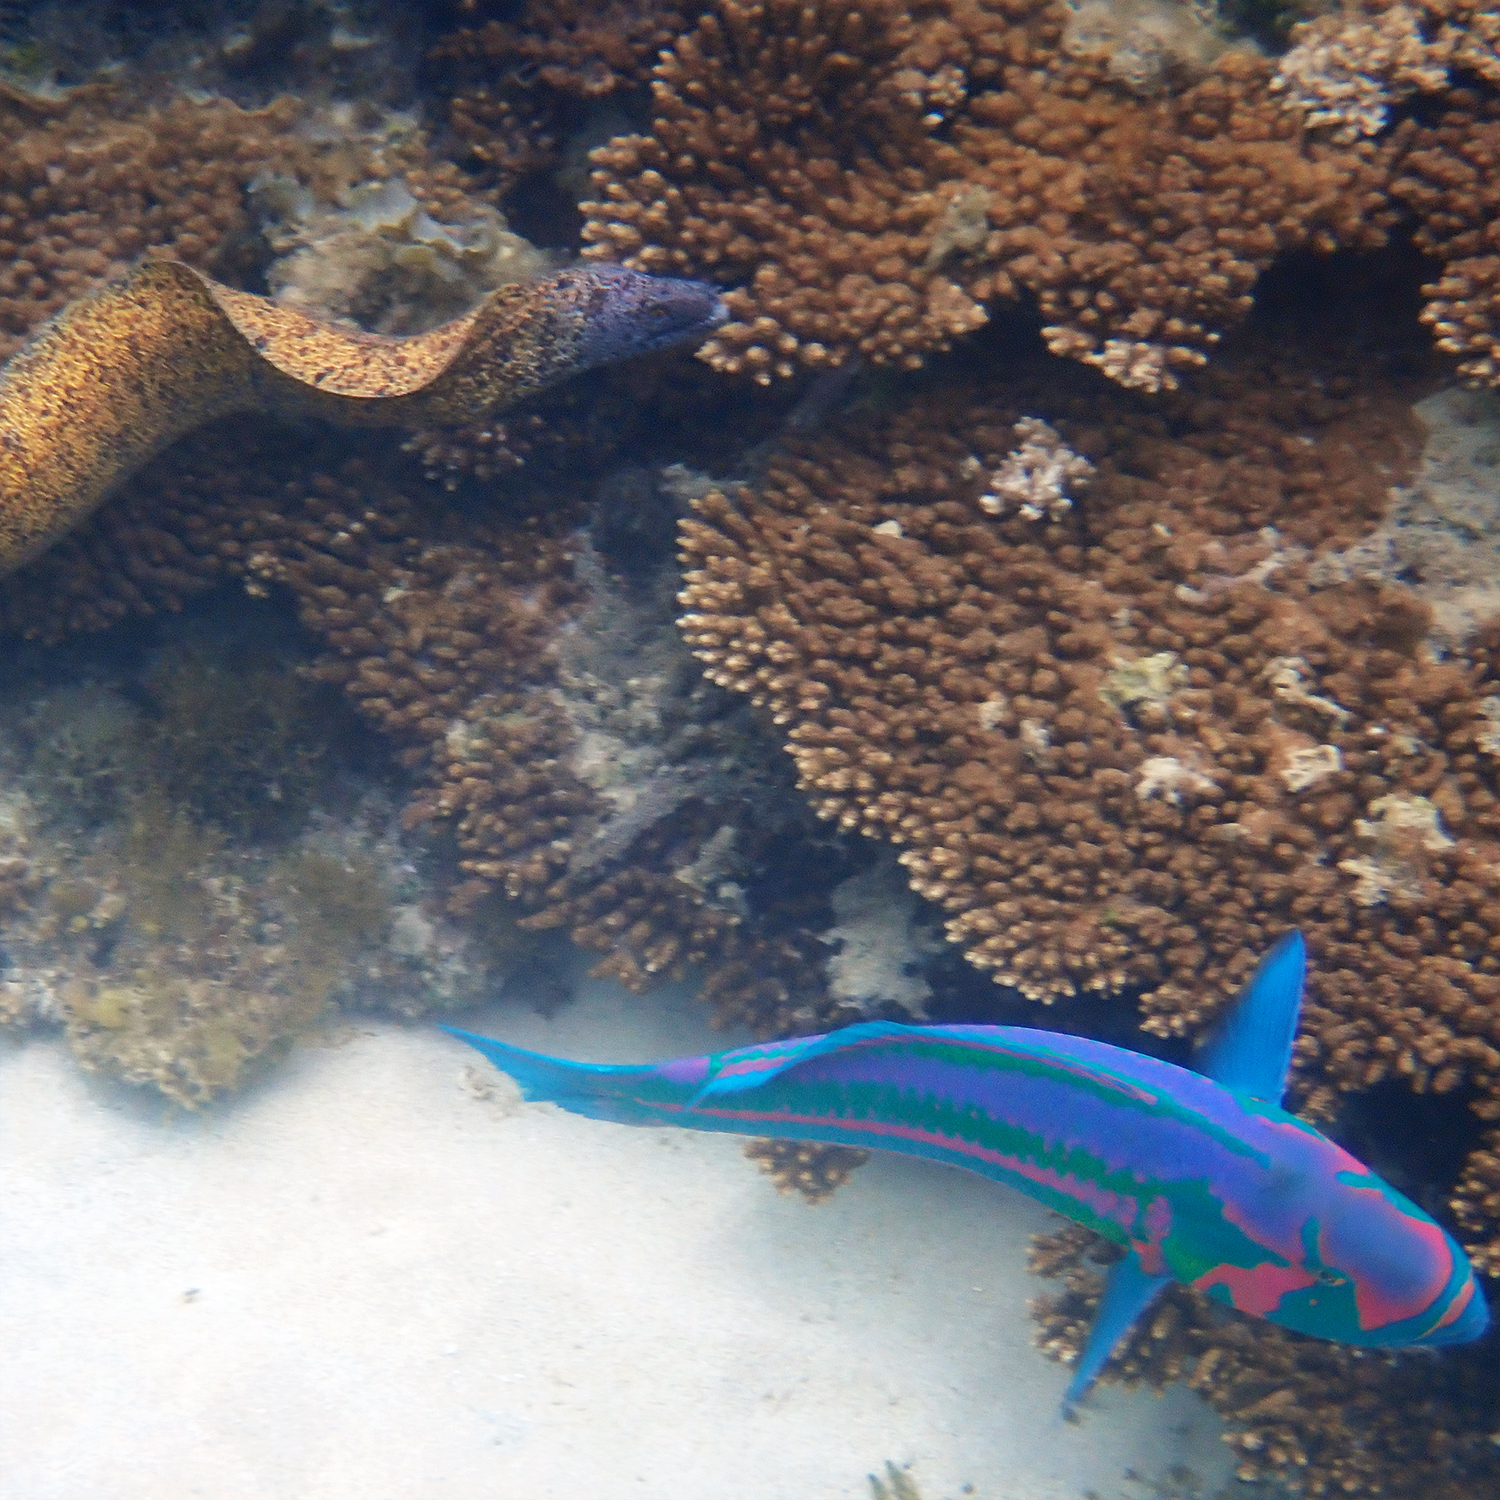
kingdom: Animalia
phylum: Chordata
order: Perciformes
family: Labridae
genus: Thalassoma
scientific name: Thalassoma purpureum
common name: Parrotfish
